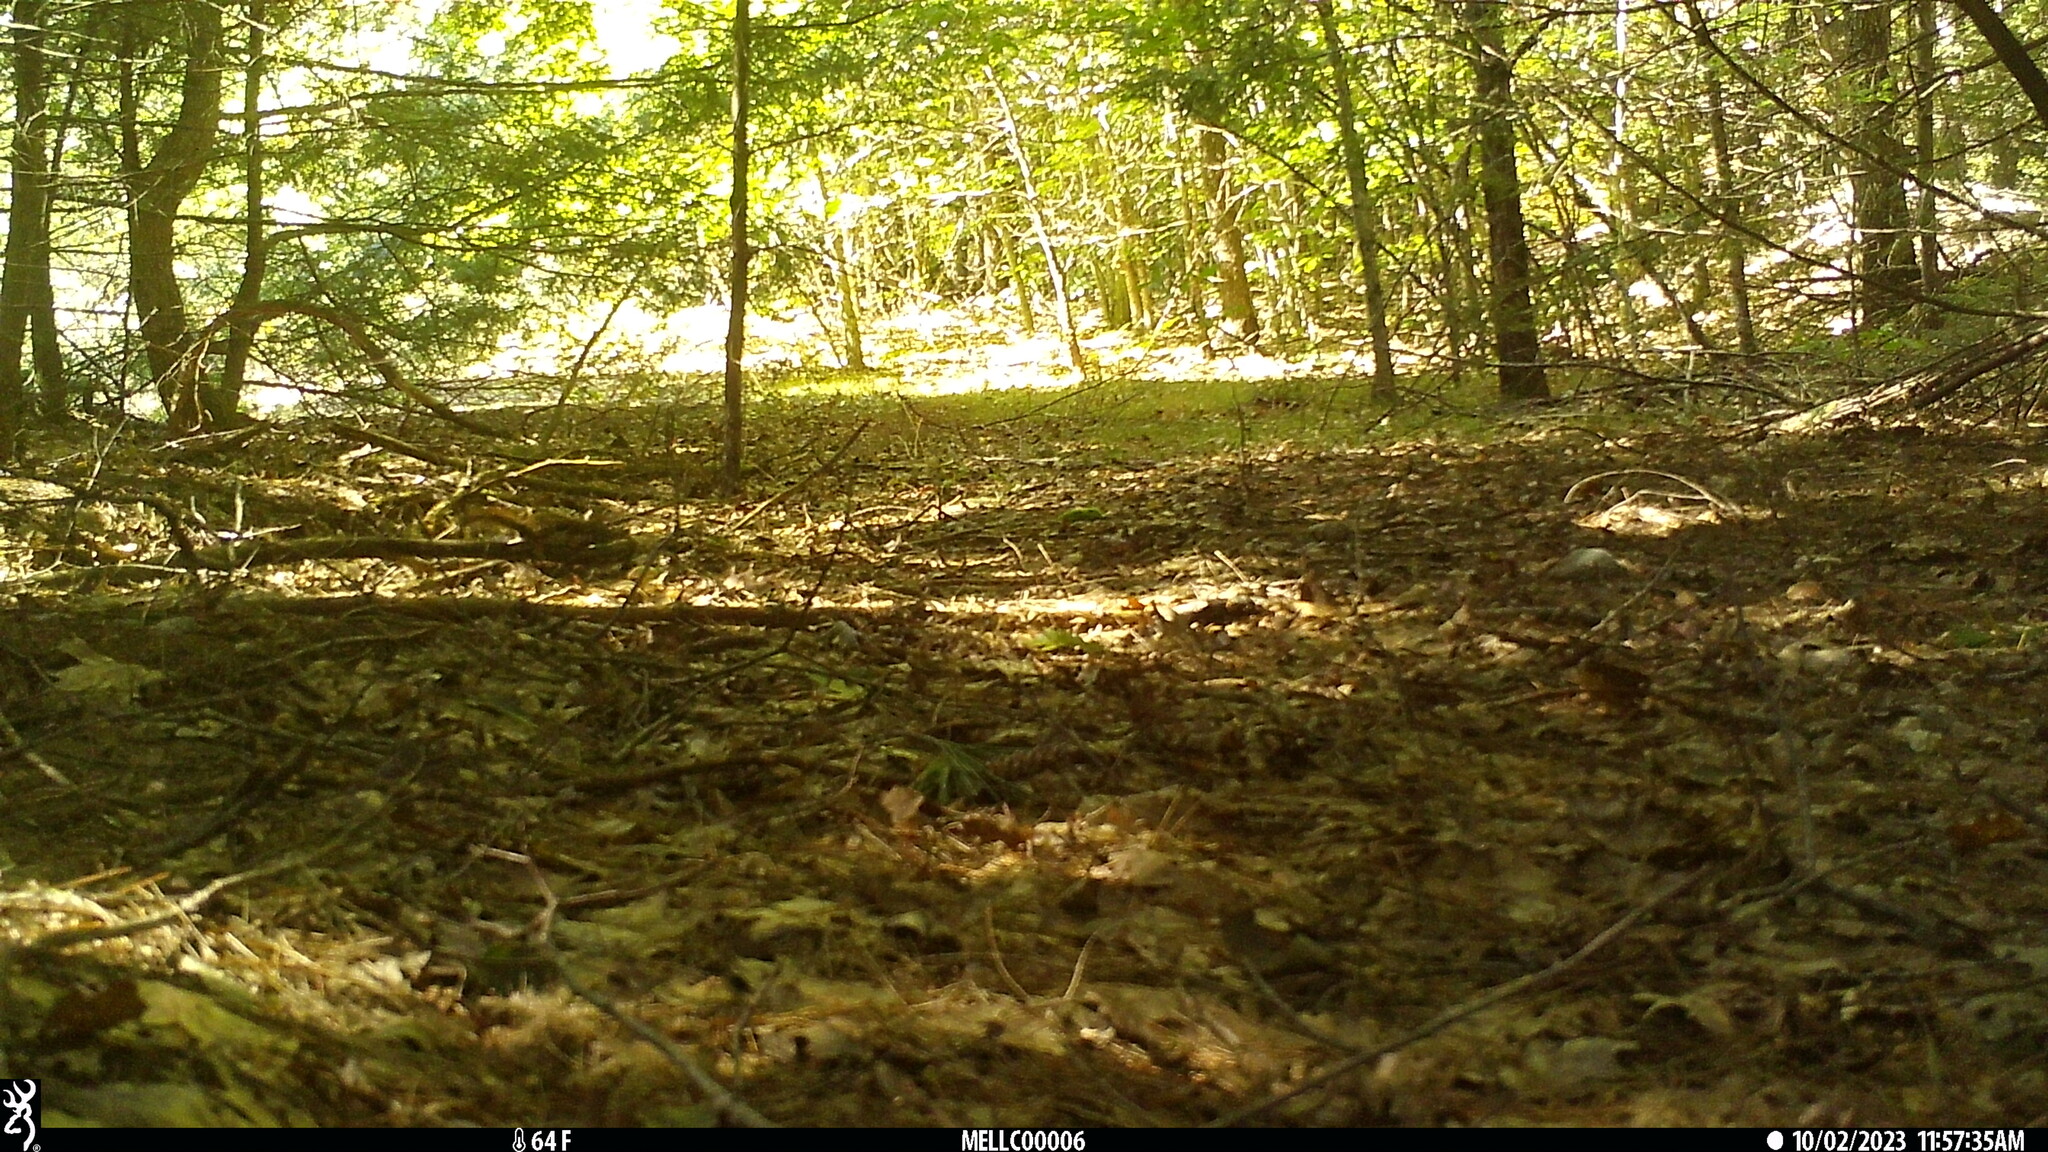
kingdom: Animalia
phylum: Chordata
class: Mammalia
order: Rodentia
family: Sciuridae
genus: Tamiasciurus
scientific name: Tamiasciurus hudsonicus
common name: Red squirrel
